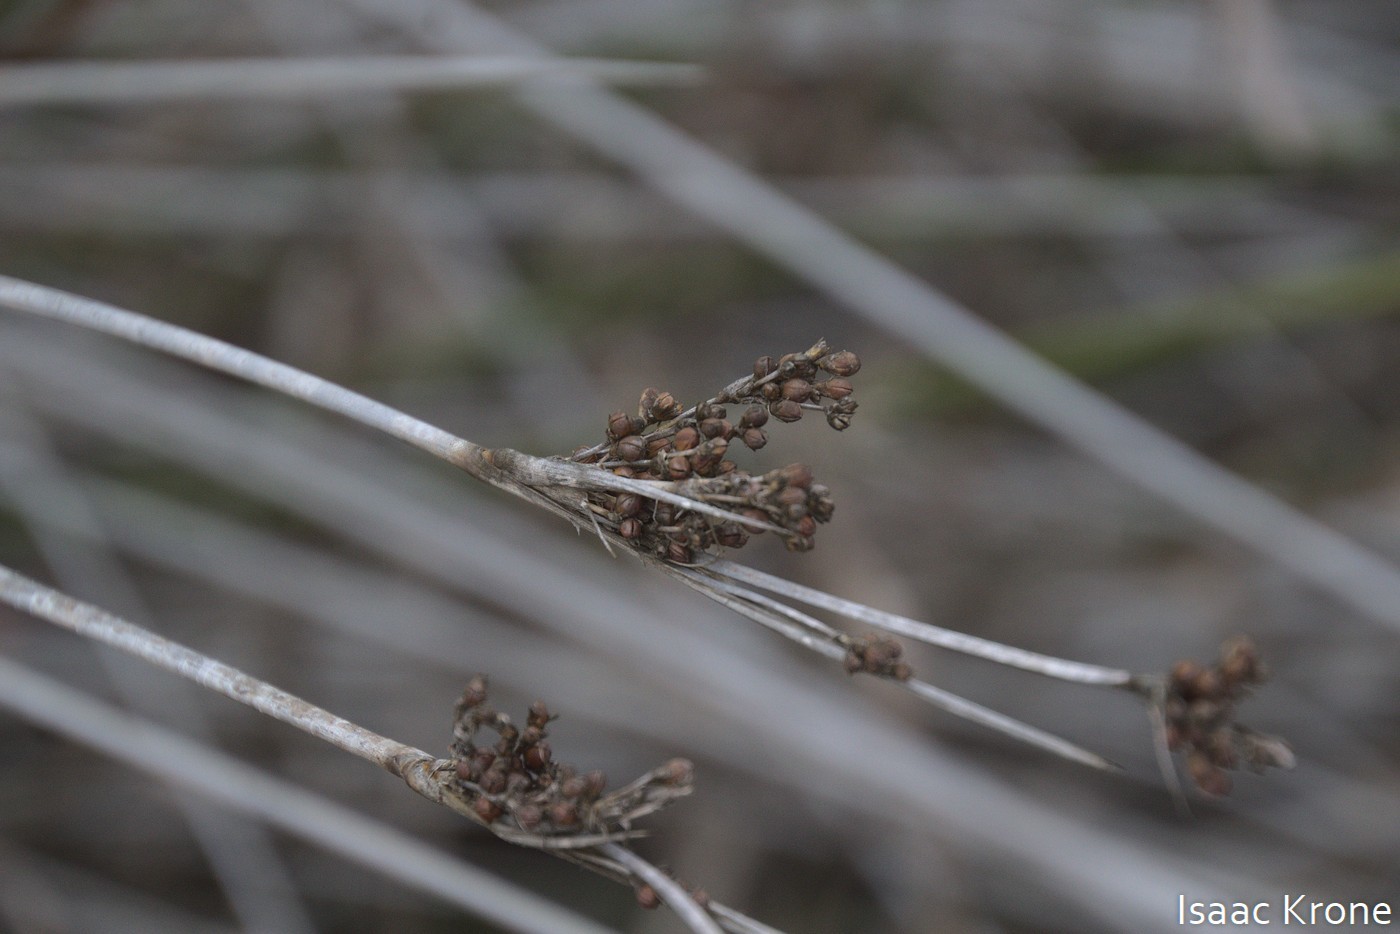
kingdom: Plantae
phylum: Tracheophyta
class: Liliopsida
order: Poales
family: Juncaceae
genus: Juncus
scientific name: Juncus acutus
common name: Sharp rush
